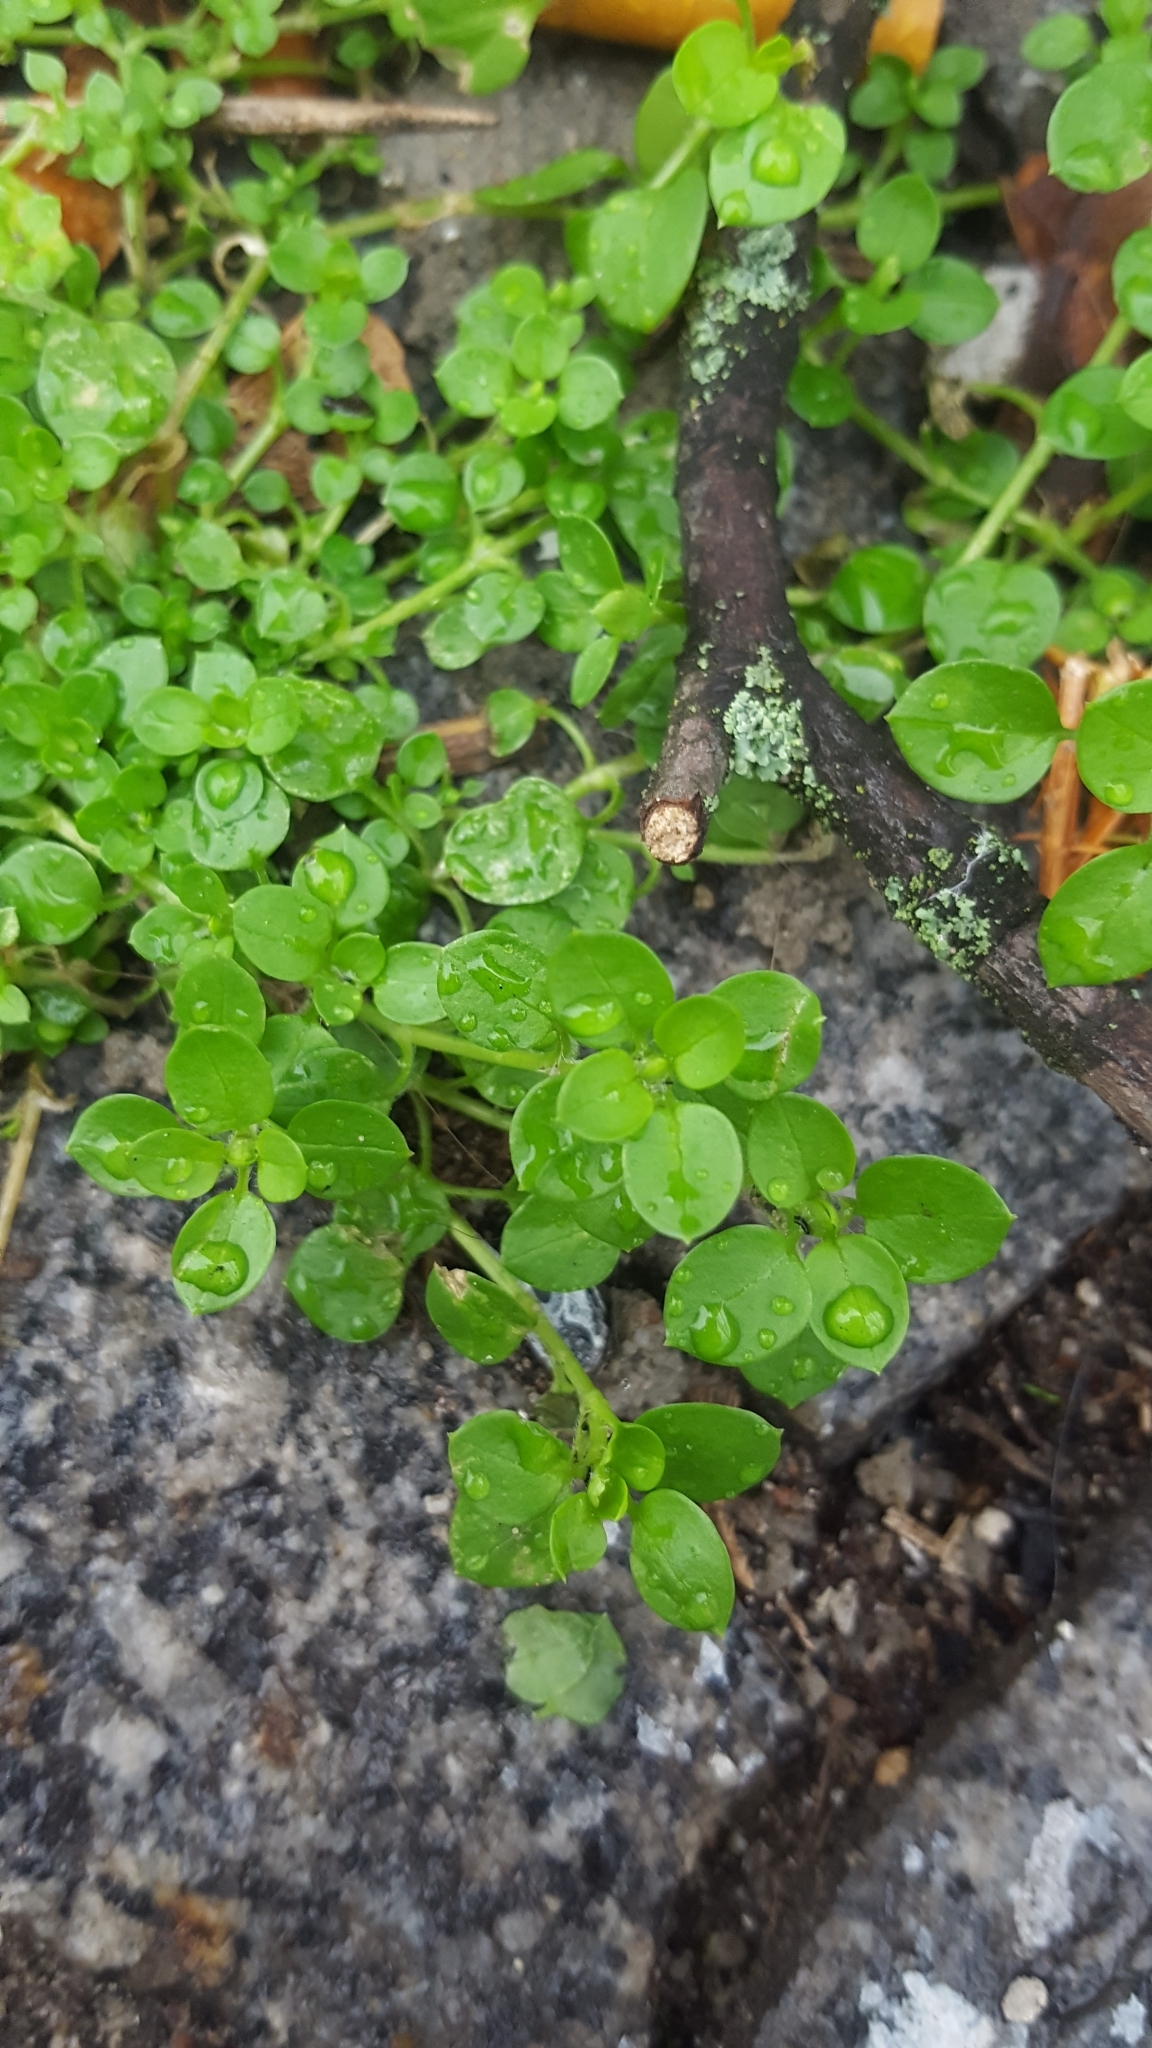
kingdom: Plantae
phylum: Tracheophyta
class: Magnoliopsida
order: Caryophyllales
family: Caryophyllaceae
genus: Stellaria
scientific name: Stellaria media
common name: Common chickweed
